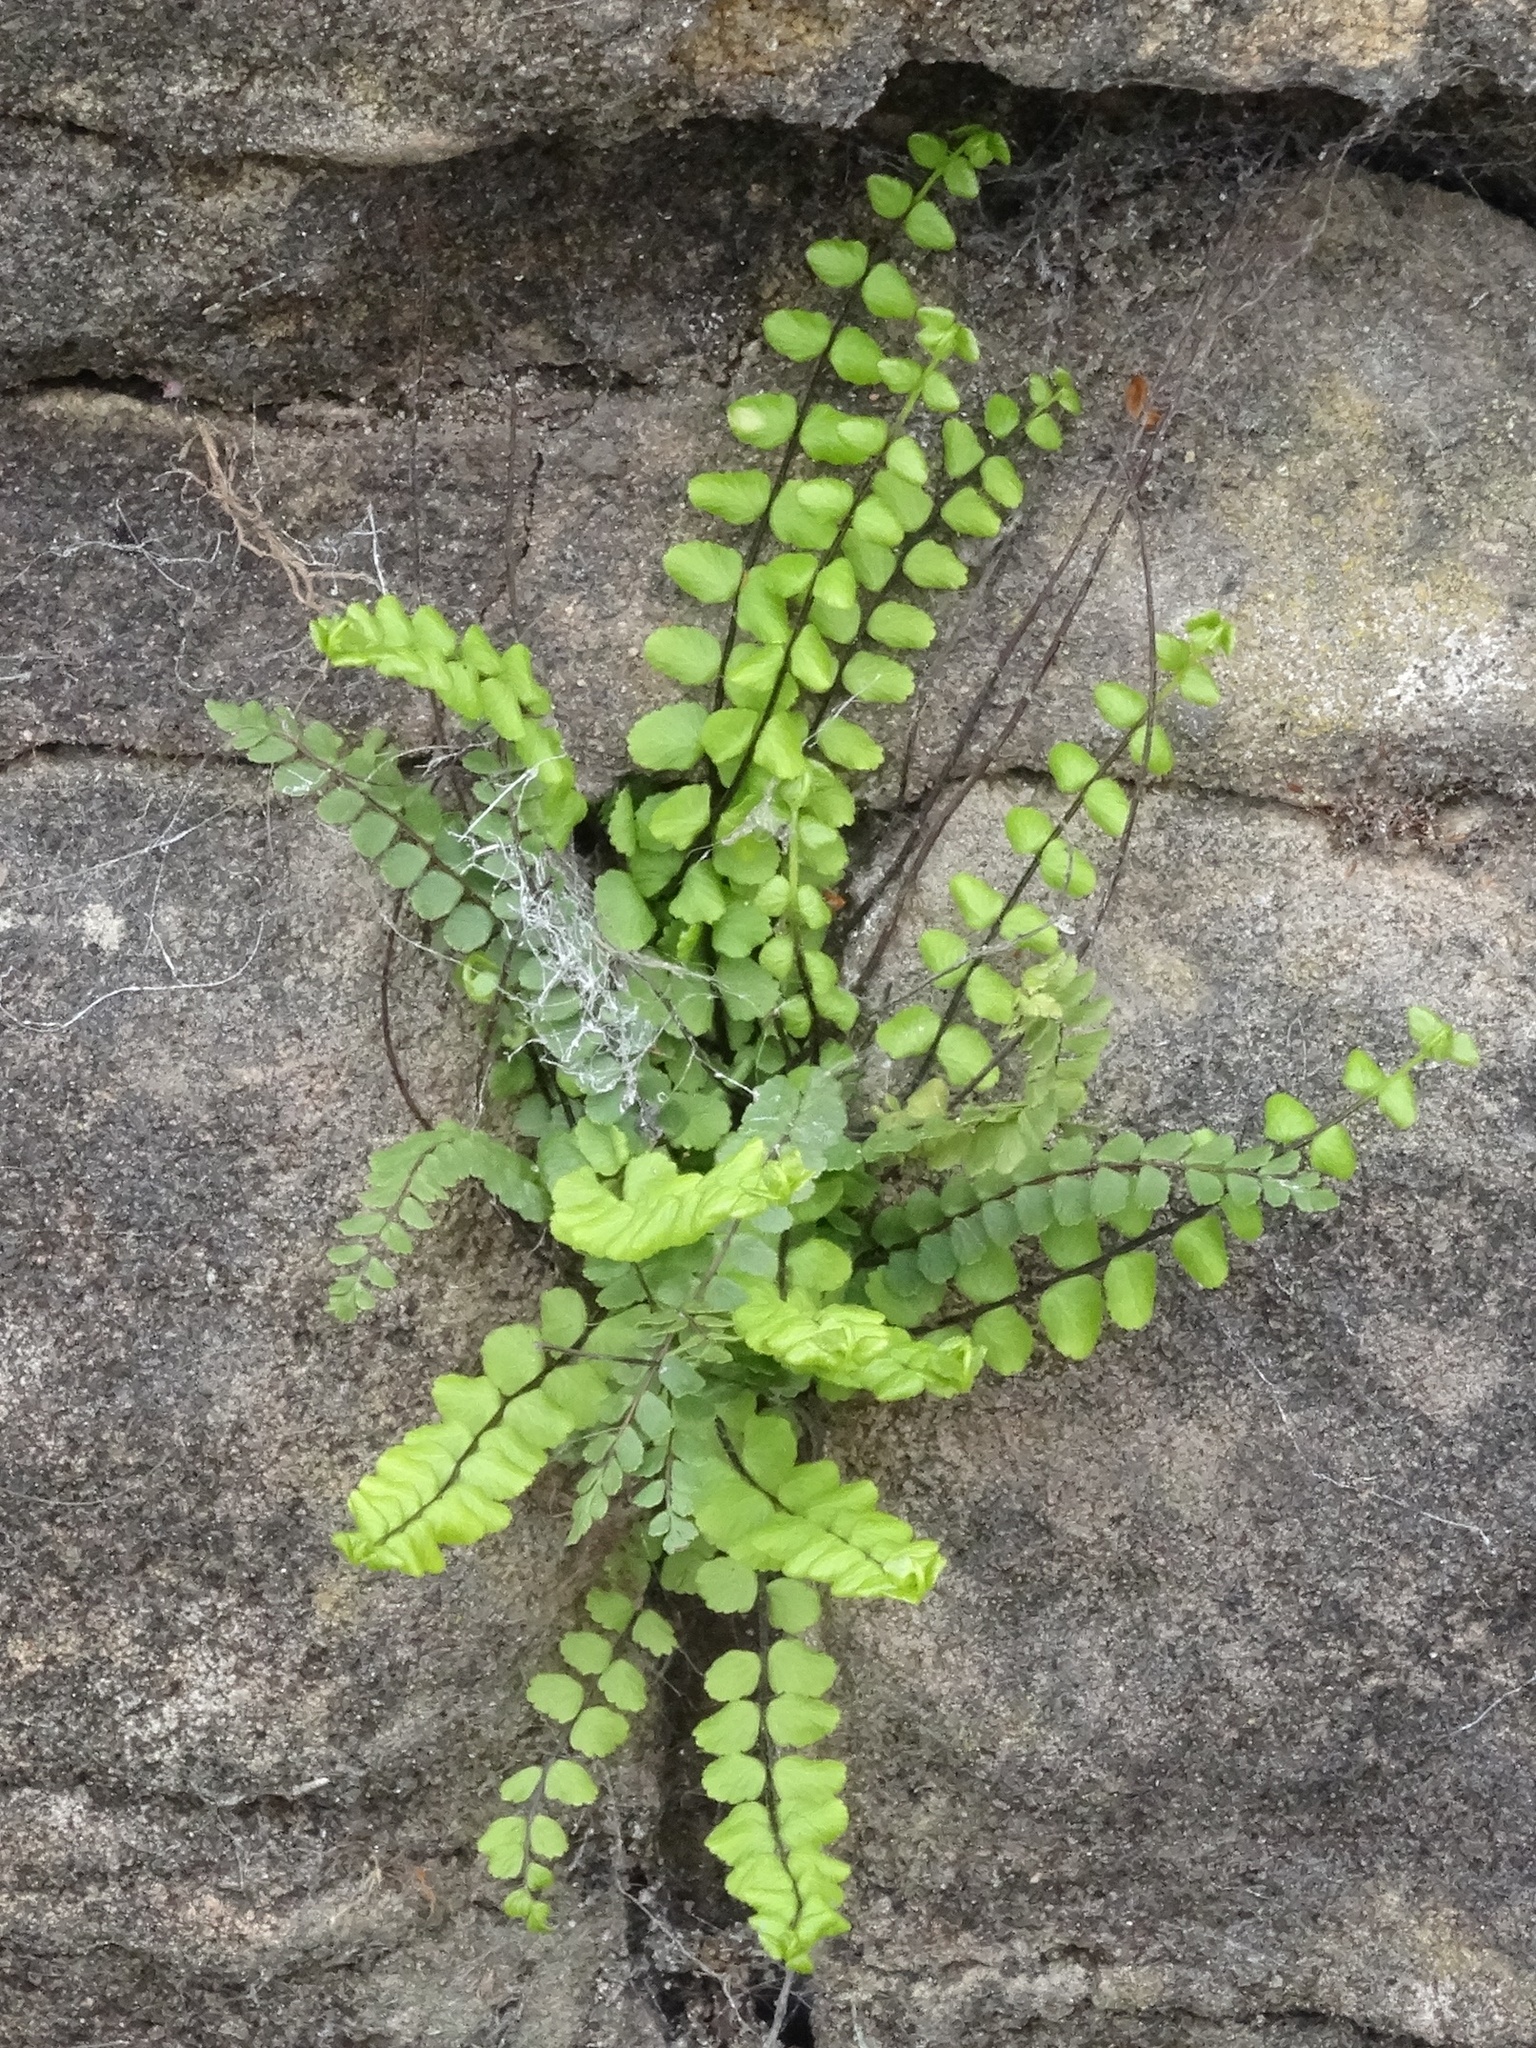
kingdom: Plantae
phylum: Tracheophyta
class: Polypodiopsida
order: Polypodiales
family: Aspleniaceae
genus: Asplenium
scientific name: Asplenium trichomanes
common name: Maidenhair spleenwort
